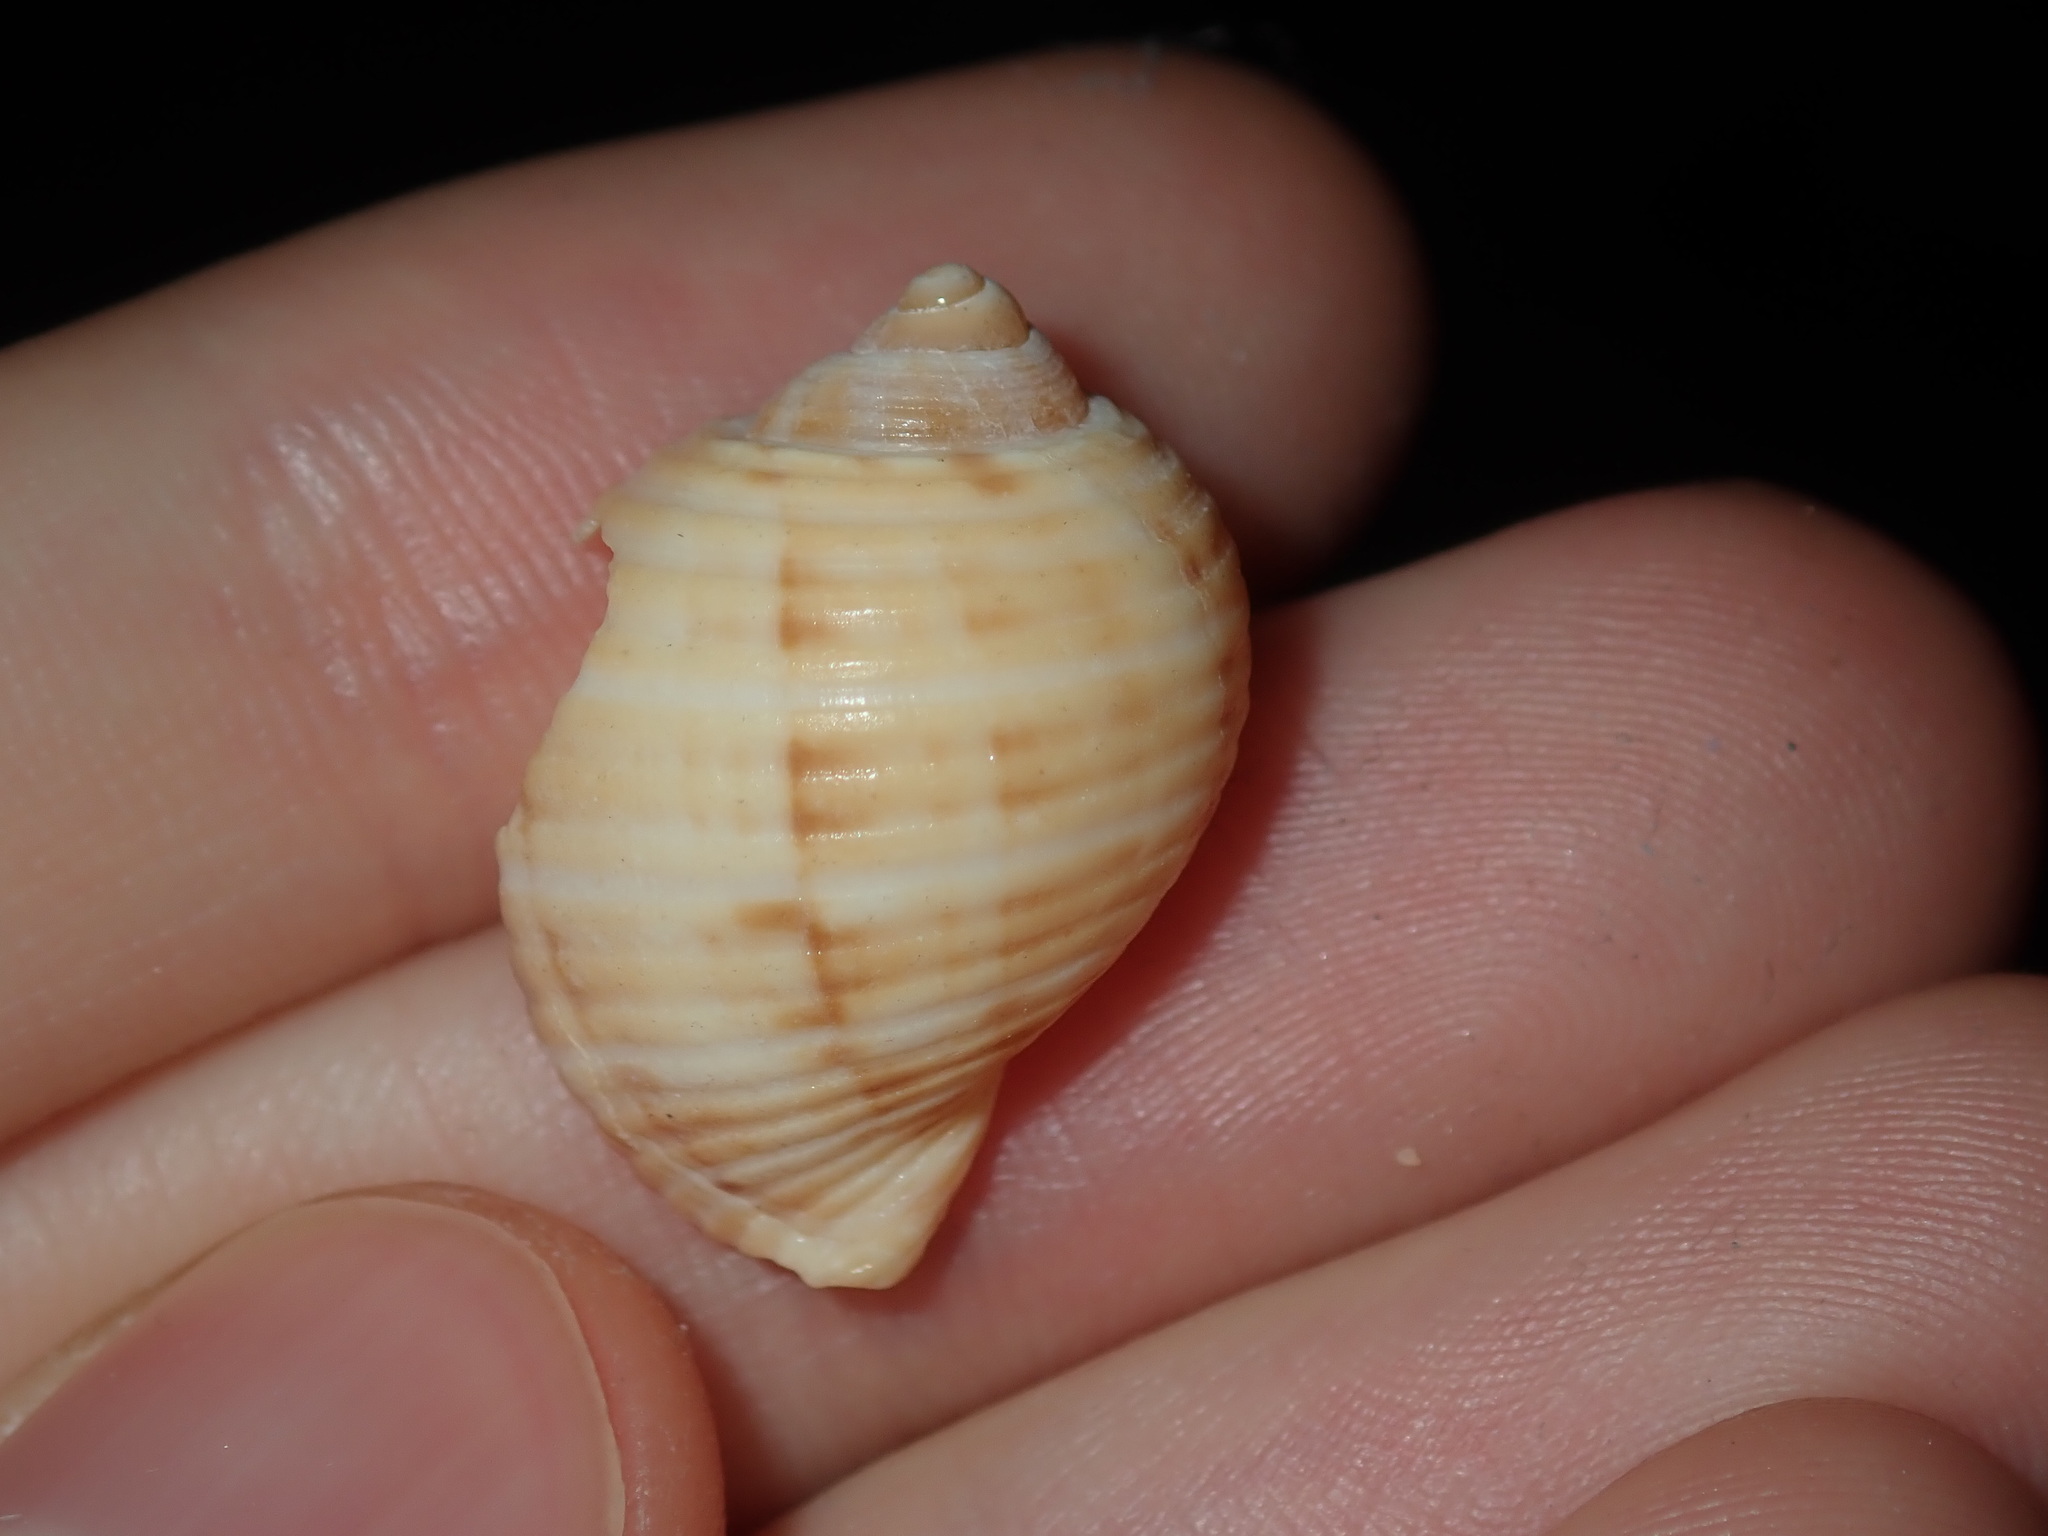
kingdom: Animalia
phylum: Mollusca
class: Gastropoda
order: Littorinimorpha
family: Tonnidae
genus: Tonna
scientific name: Tonna tankervillii
